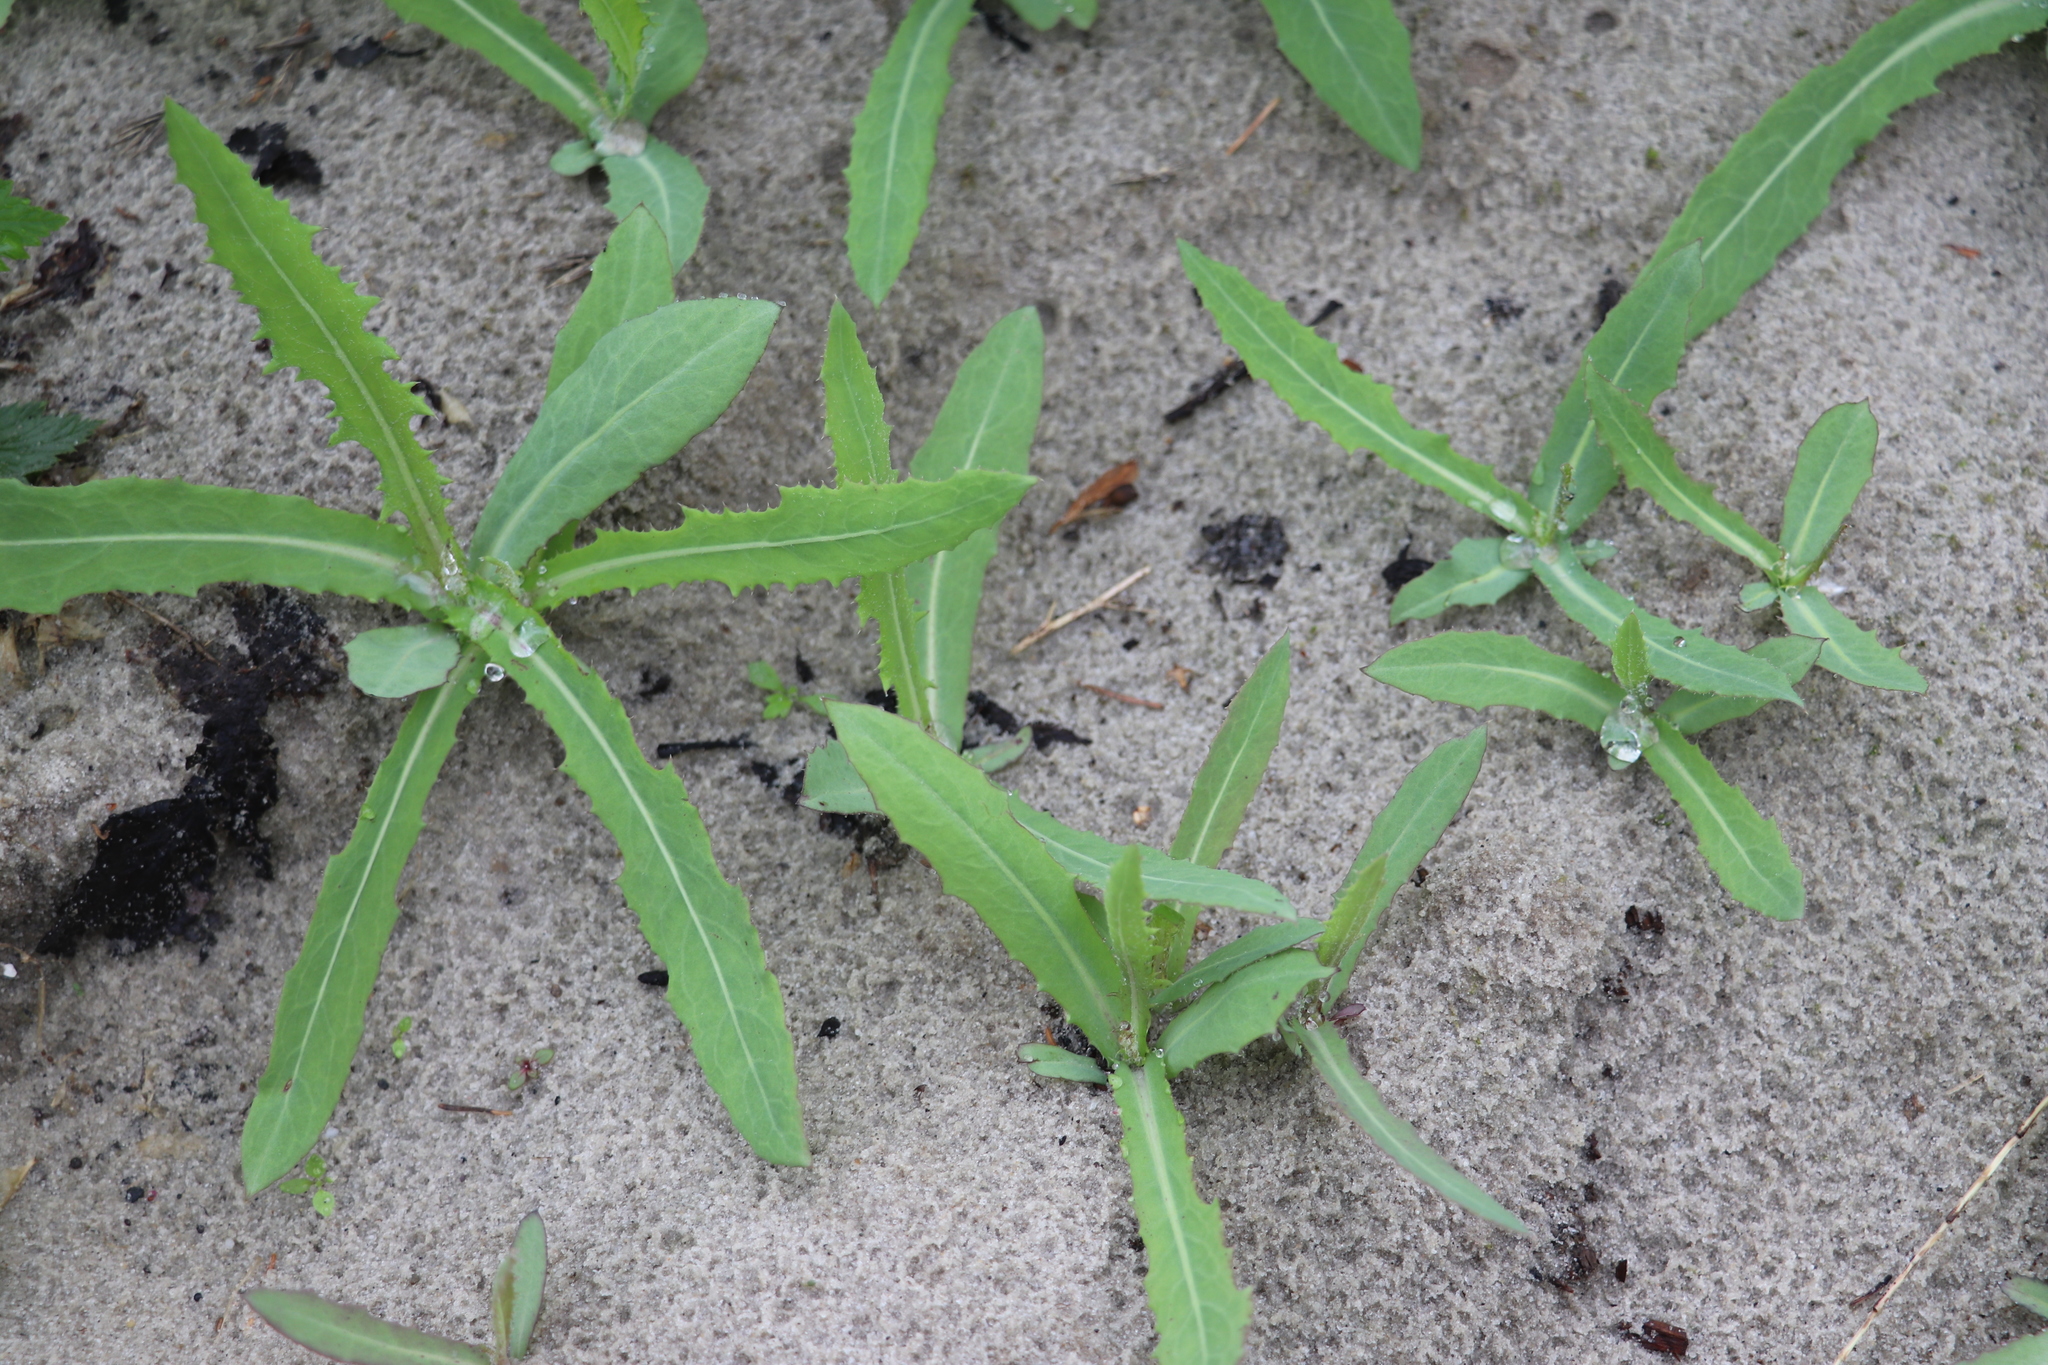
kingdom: Plantae
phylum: Tracheophyta
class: Magnoliopsida
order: Asterales
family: Asteraceae
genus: Sonchus
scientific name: Sonchus arvensis
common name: Perennial sow-thistle
